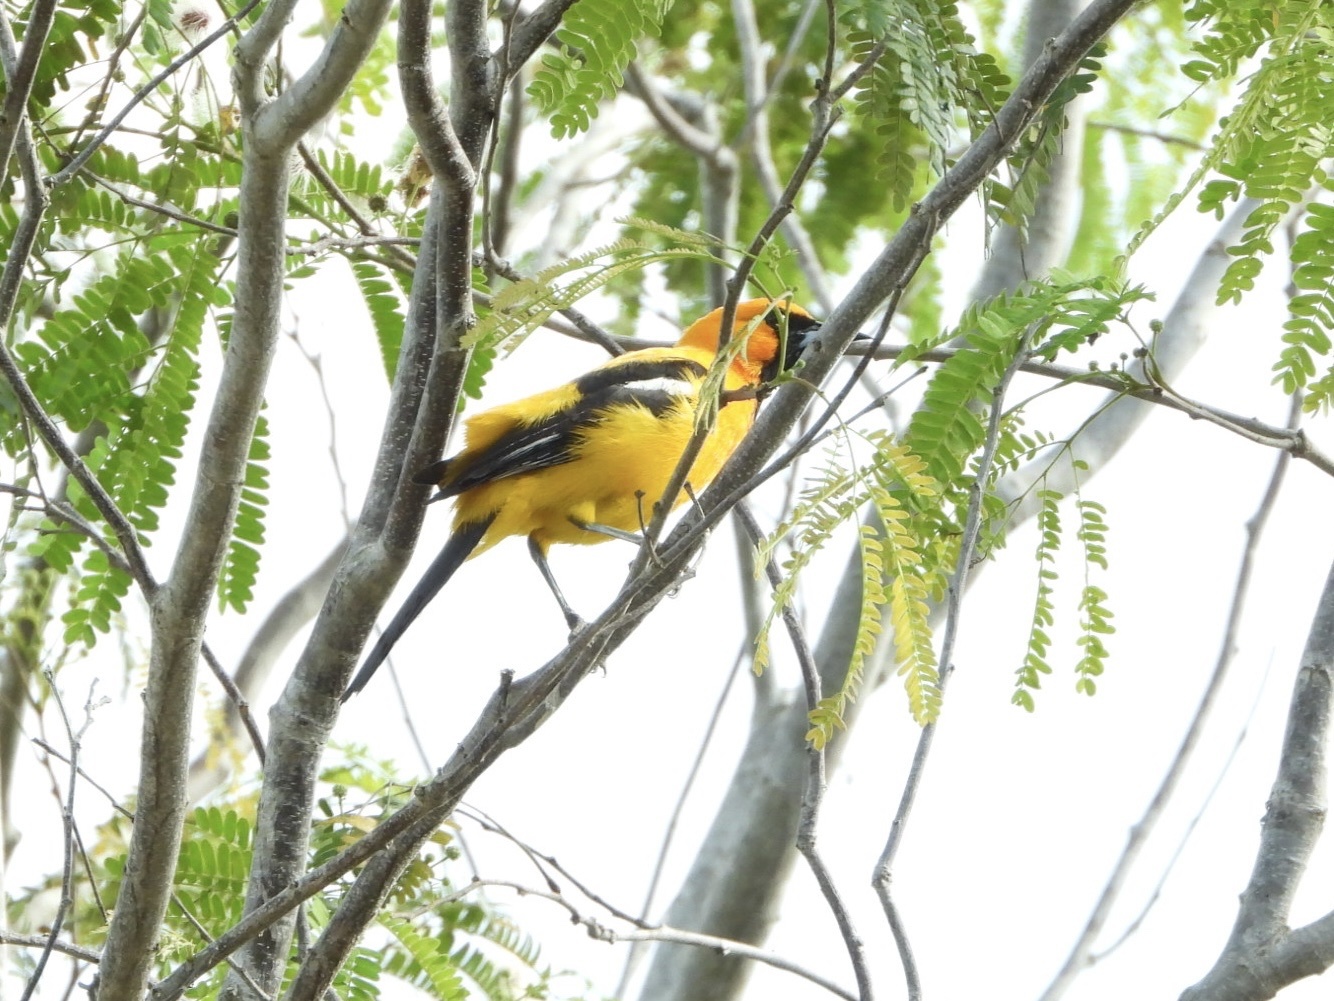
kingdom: Animalia
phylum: Chordata
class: Aves
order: Passeriformes
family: Icteridae
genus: Icterus
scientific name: Icterus auratus
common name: Orange oriole
